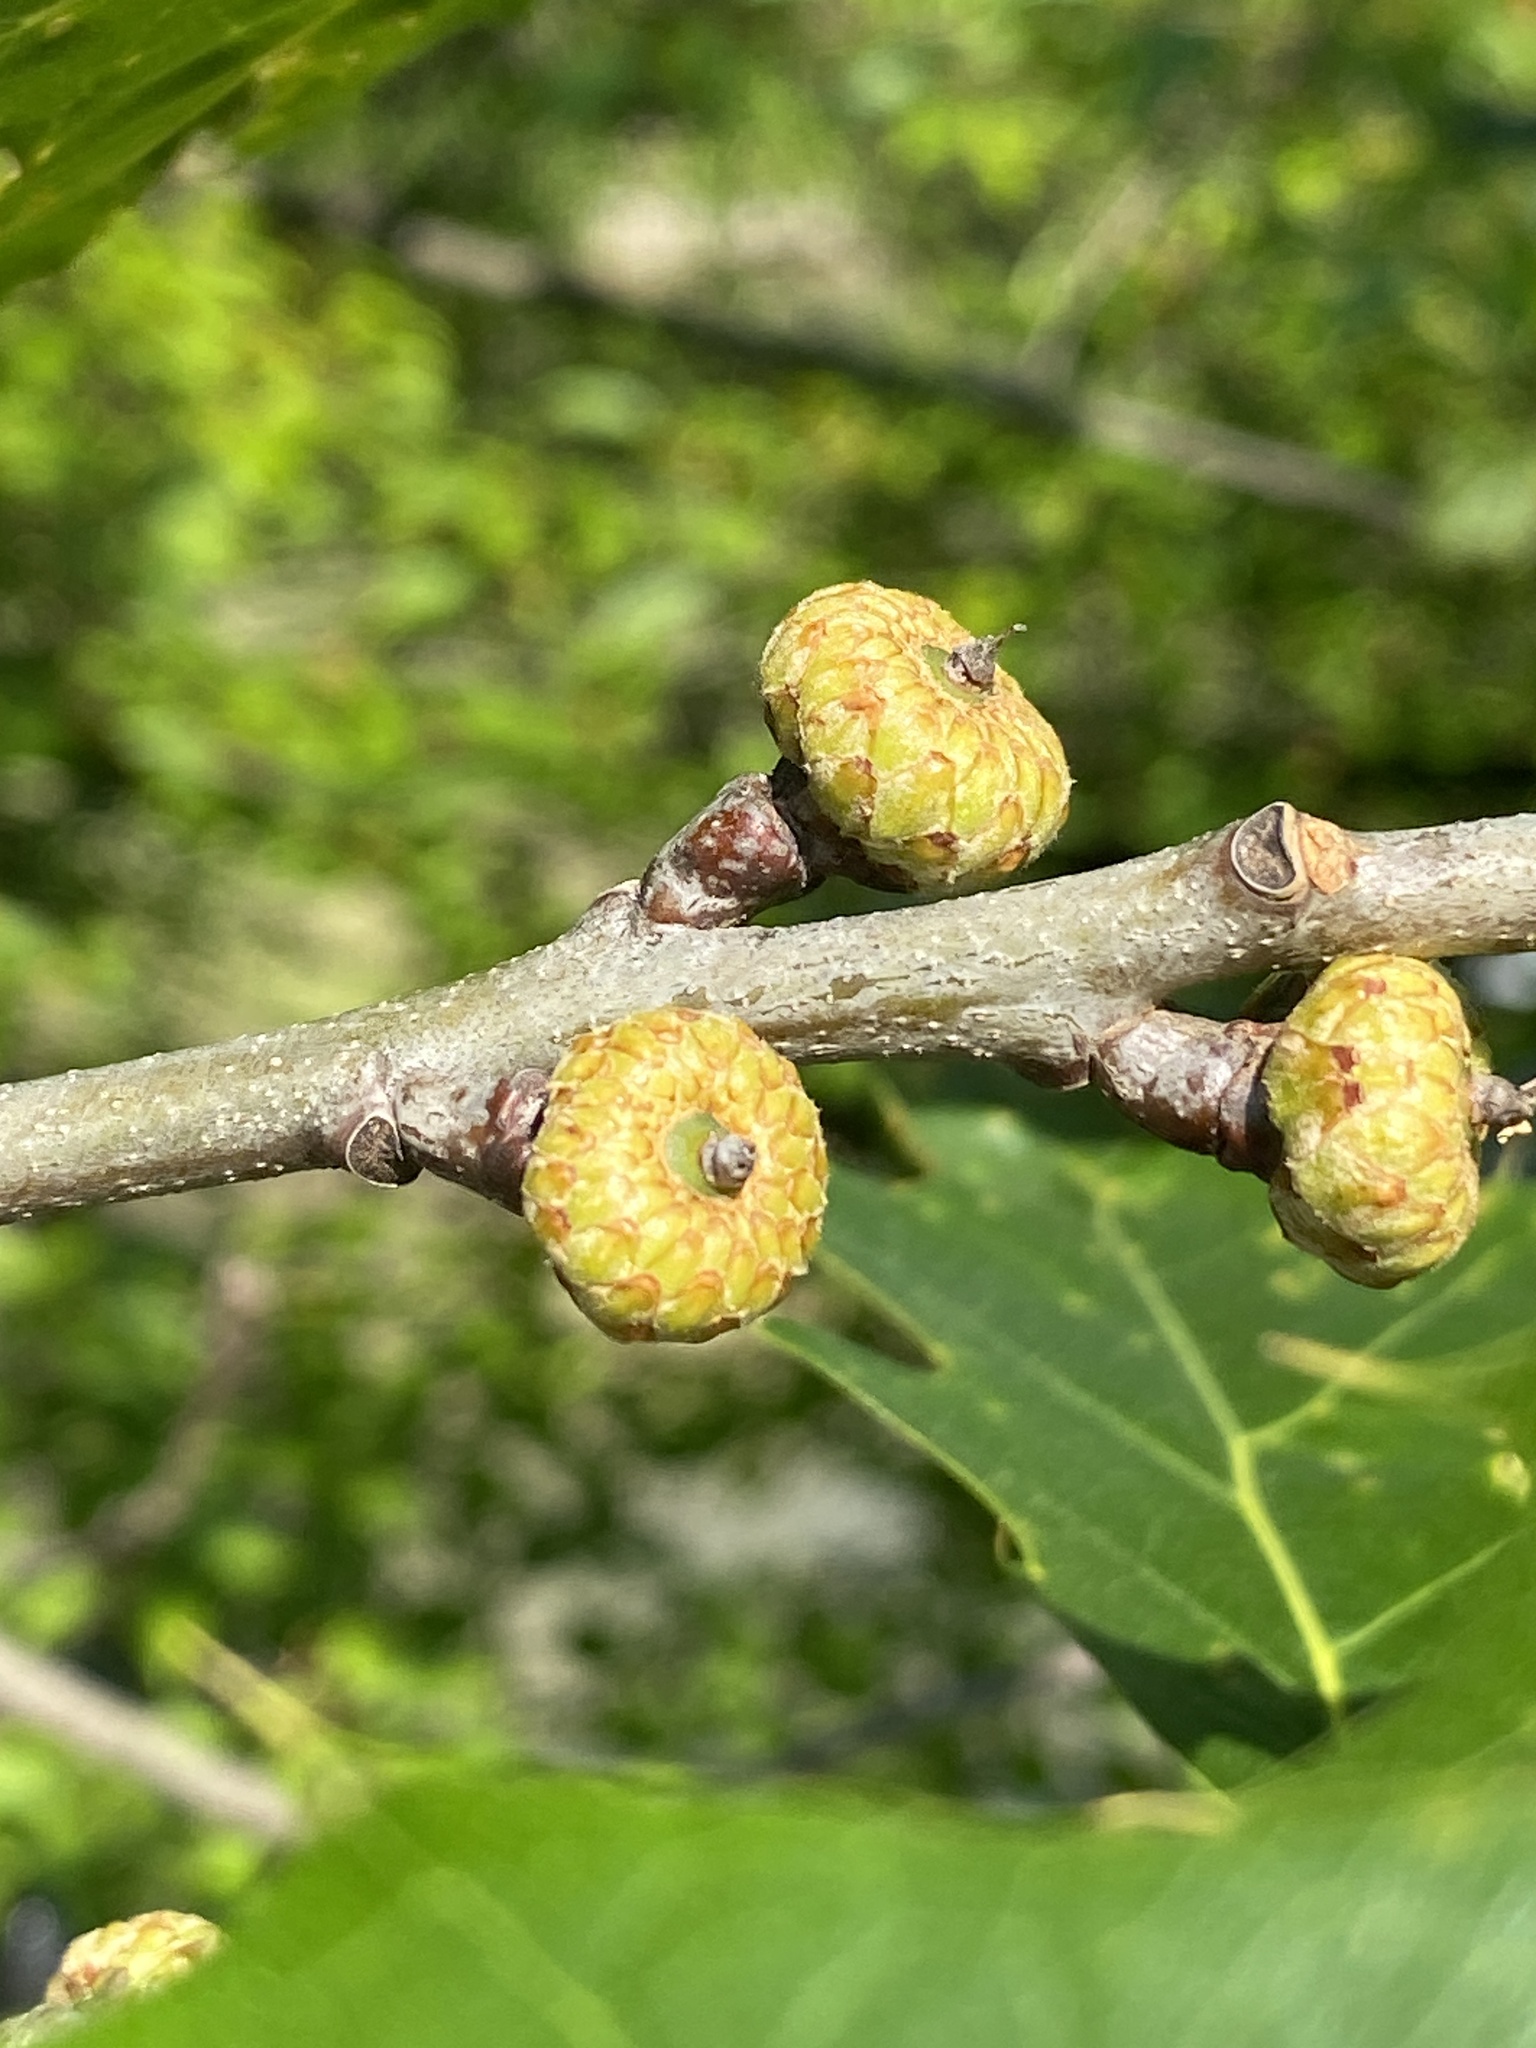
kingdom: Plantae
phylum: Tracheophyta
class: Magnoliopsida
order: Fagales
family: Fagaceae
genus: Quercus
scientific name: Quercus rubra
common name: Red oak
